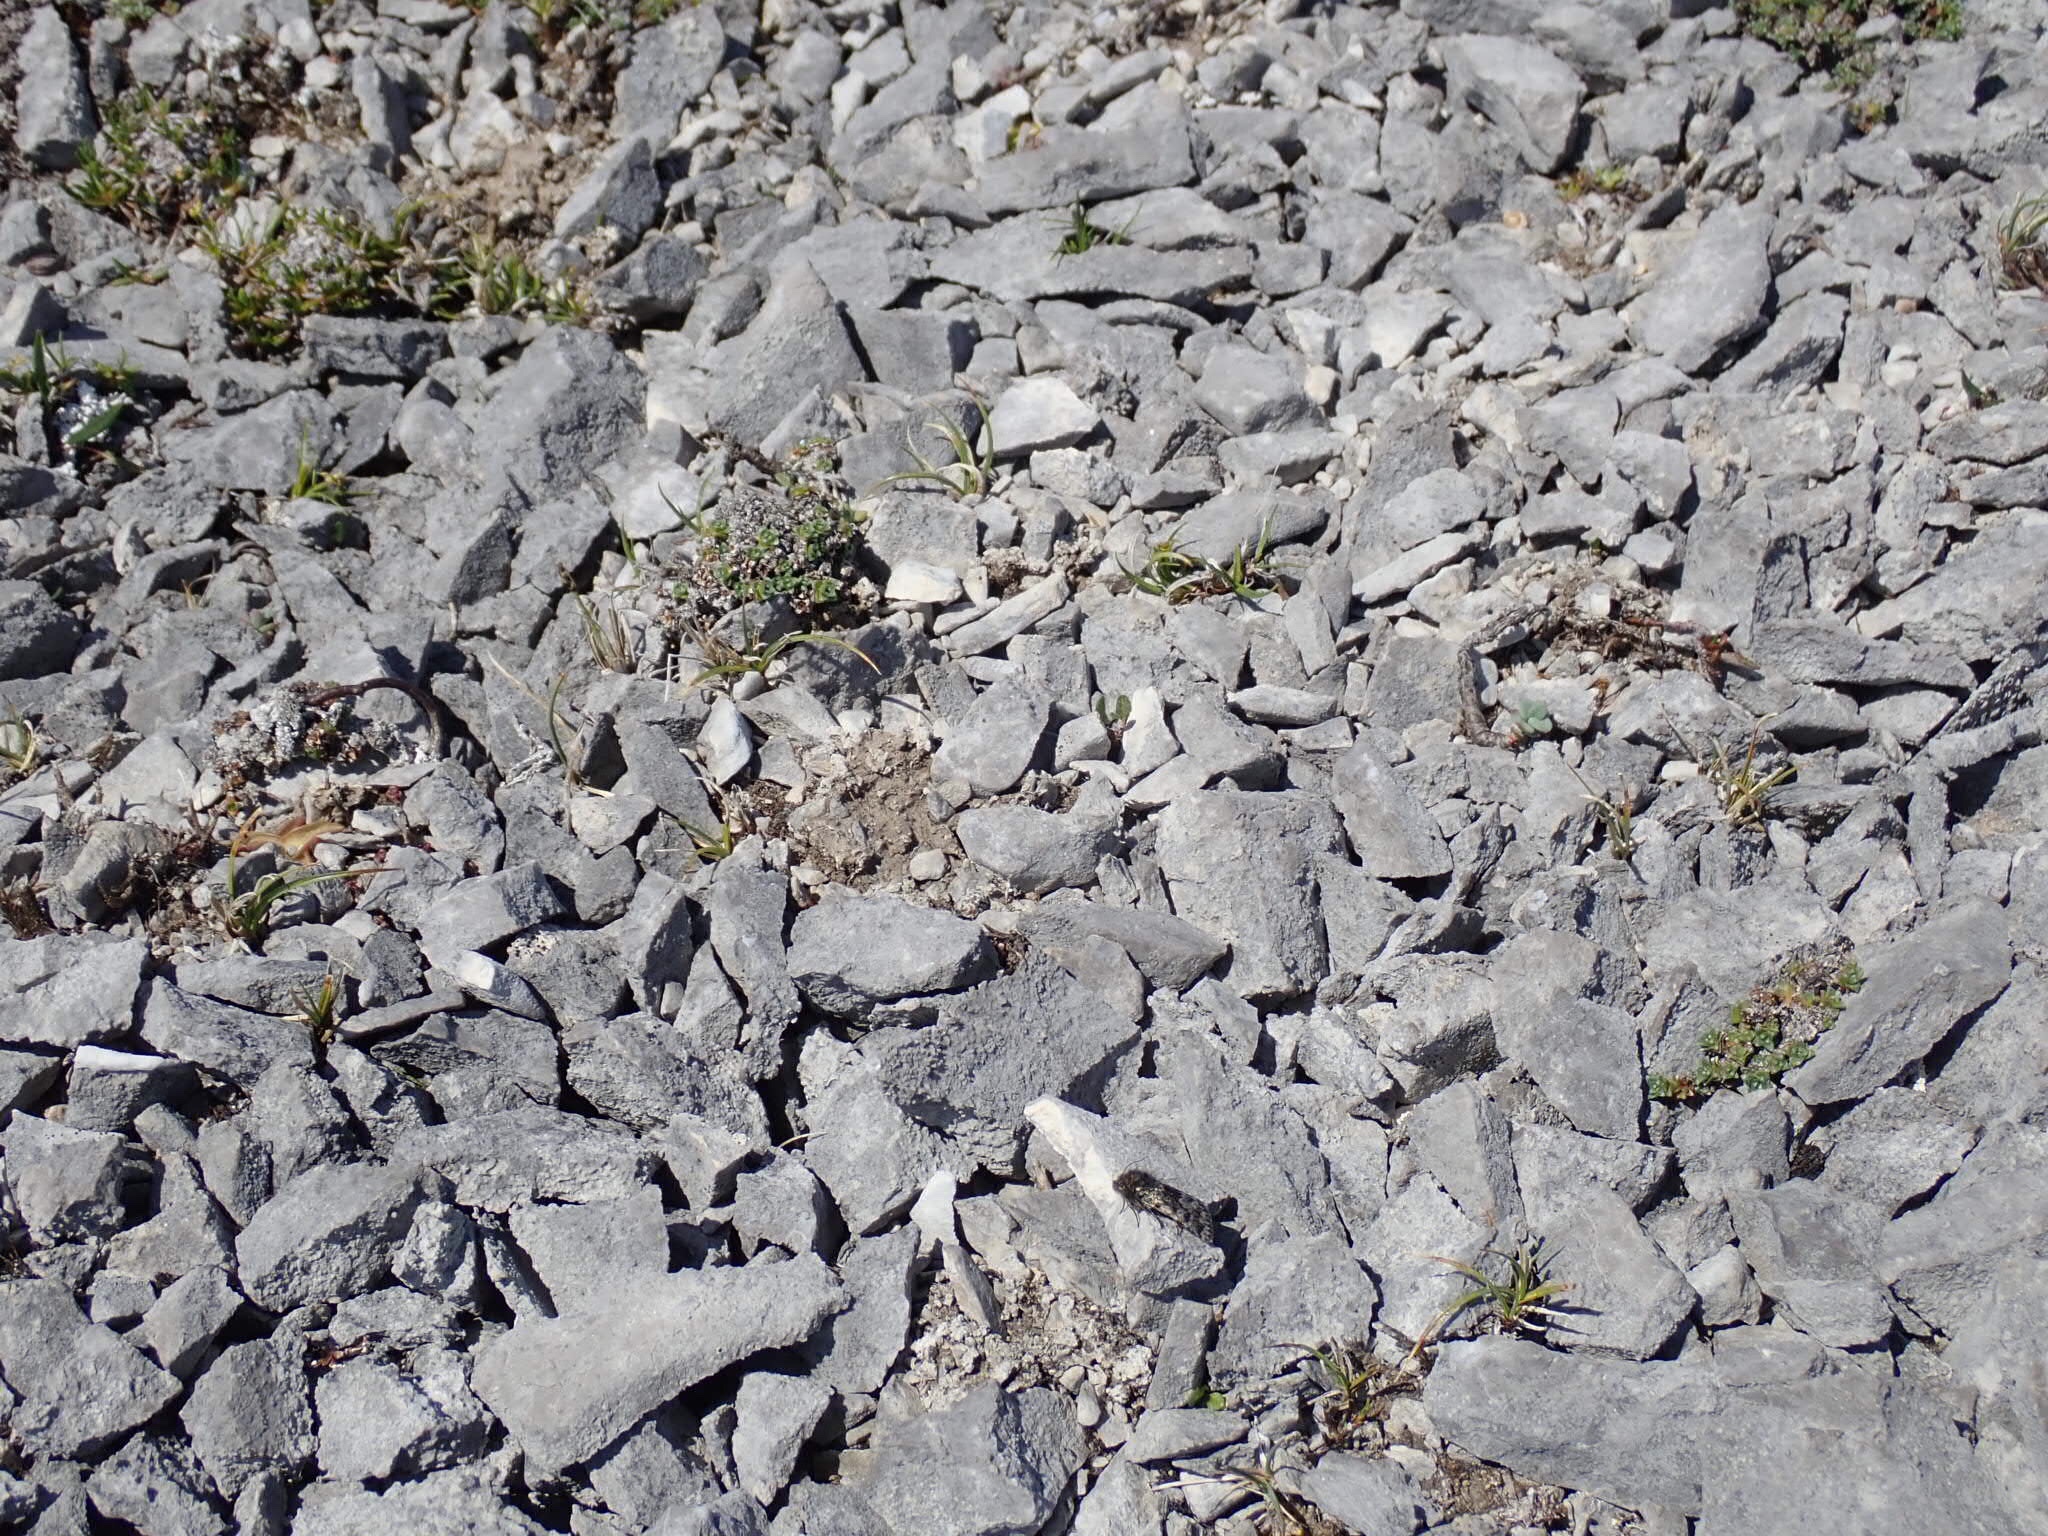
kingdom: Animalia
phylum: Arthropoda
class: Insecta
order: Lepidoptera
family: Noctuidae
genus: Sympistis
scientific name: Sympistis nigrita
